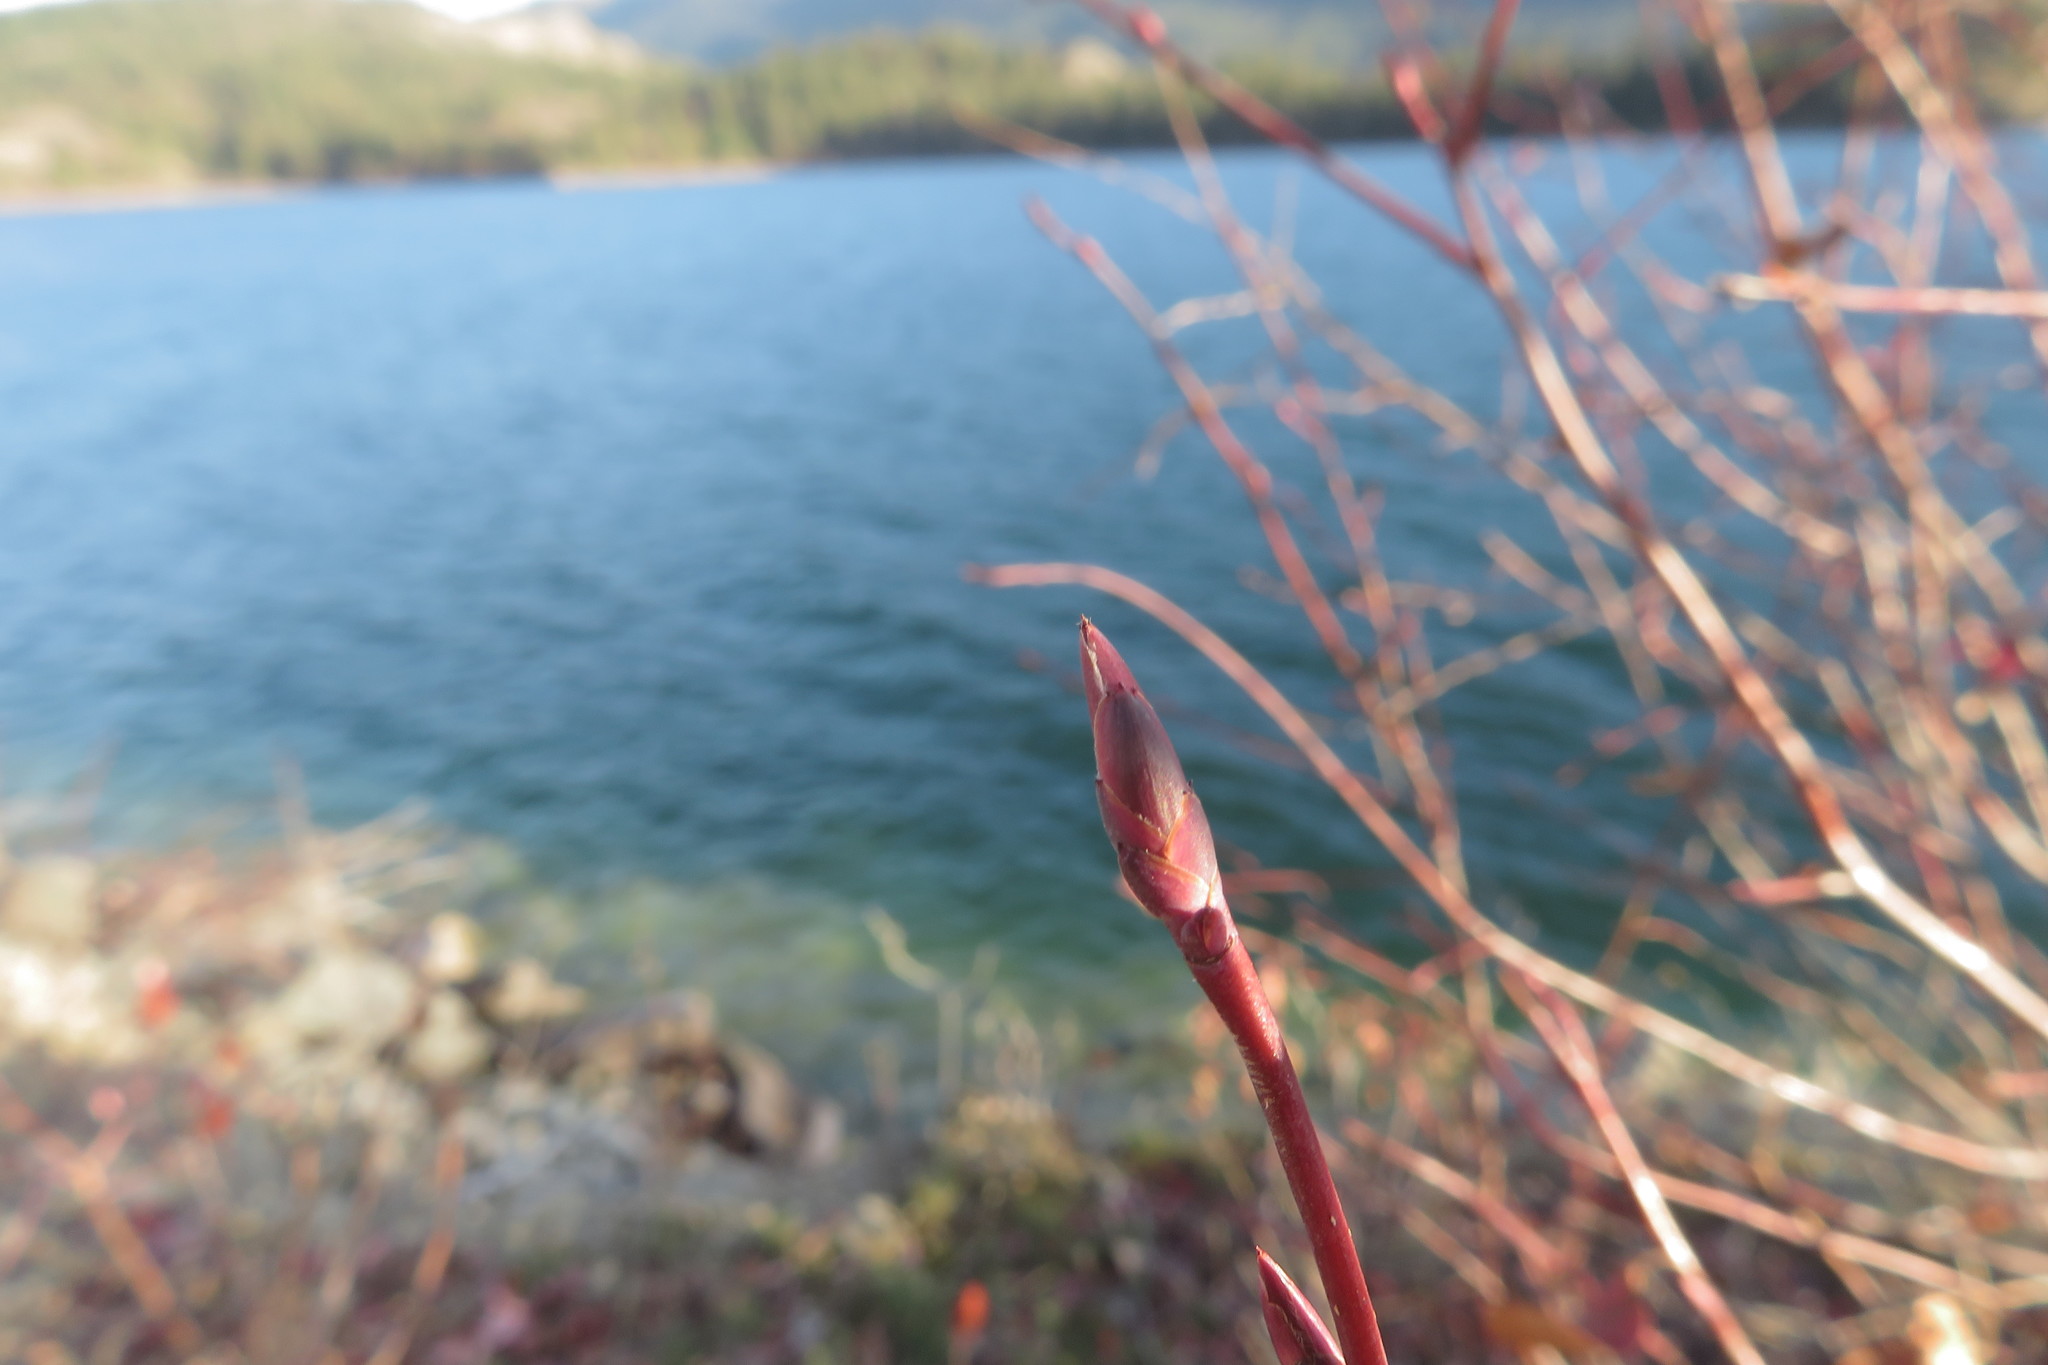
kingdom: Plantae
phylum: Tracheophyta
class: Magnoliopsida
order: Rosales
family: Rosaceae
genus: Amelanchier
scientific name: Amelanchier alnifolia
